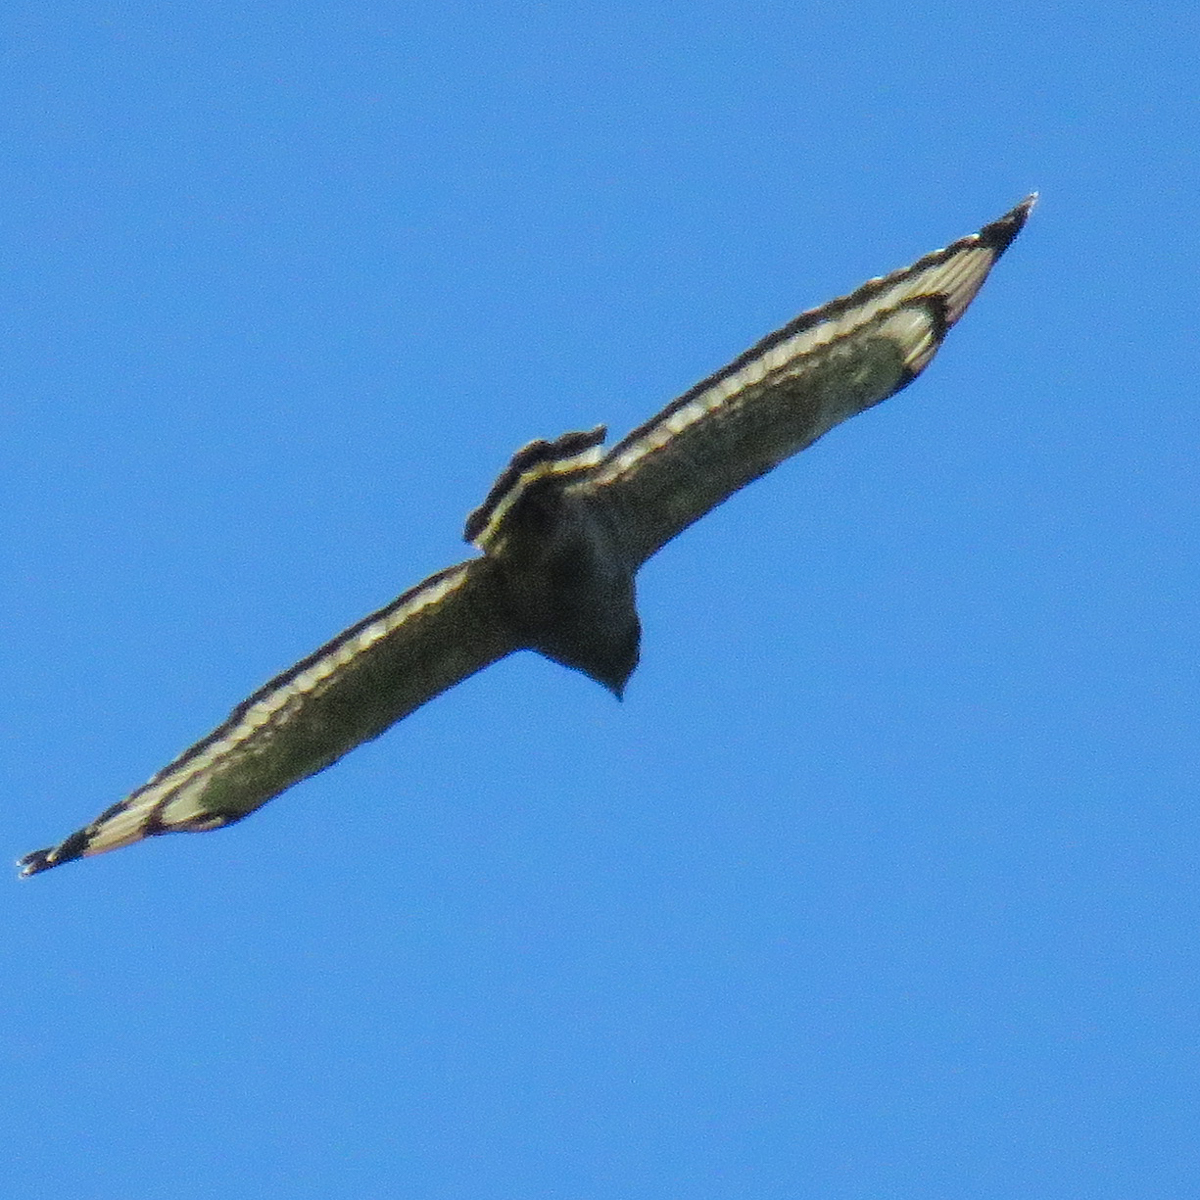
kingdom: Animalia
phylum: Chordata
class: Aves
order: Accipitriformes
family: Accipitridae
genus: Spilornis
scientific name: Spilornis cheela
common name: Crested serpent eagle
